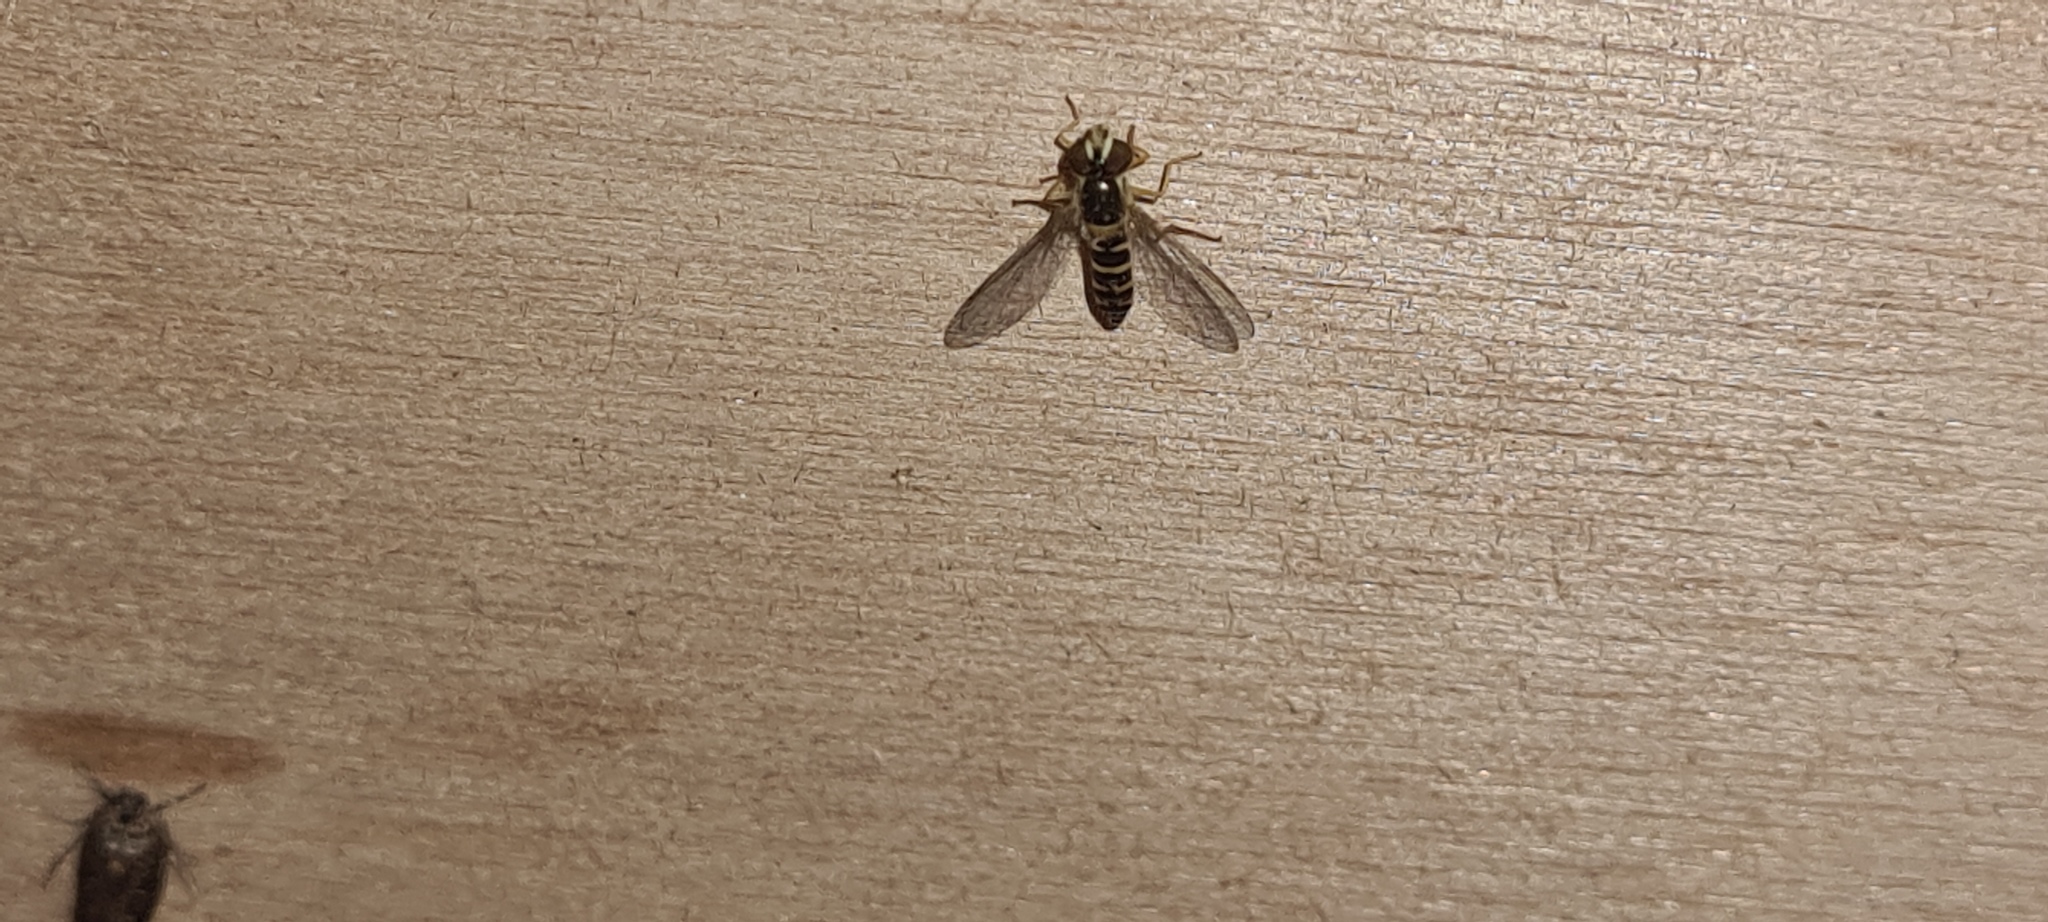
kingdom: Animalia
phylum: Arthropoda
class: Insecta
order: Diptera
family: Syrphidae
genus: Sphaerophoria
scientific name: Sphaerophoria
